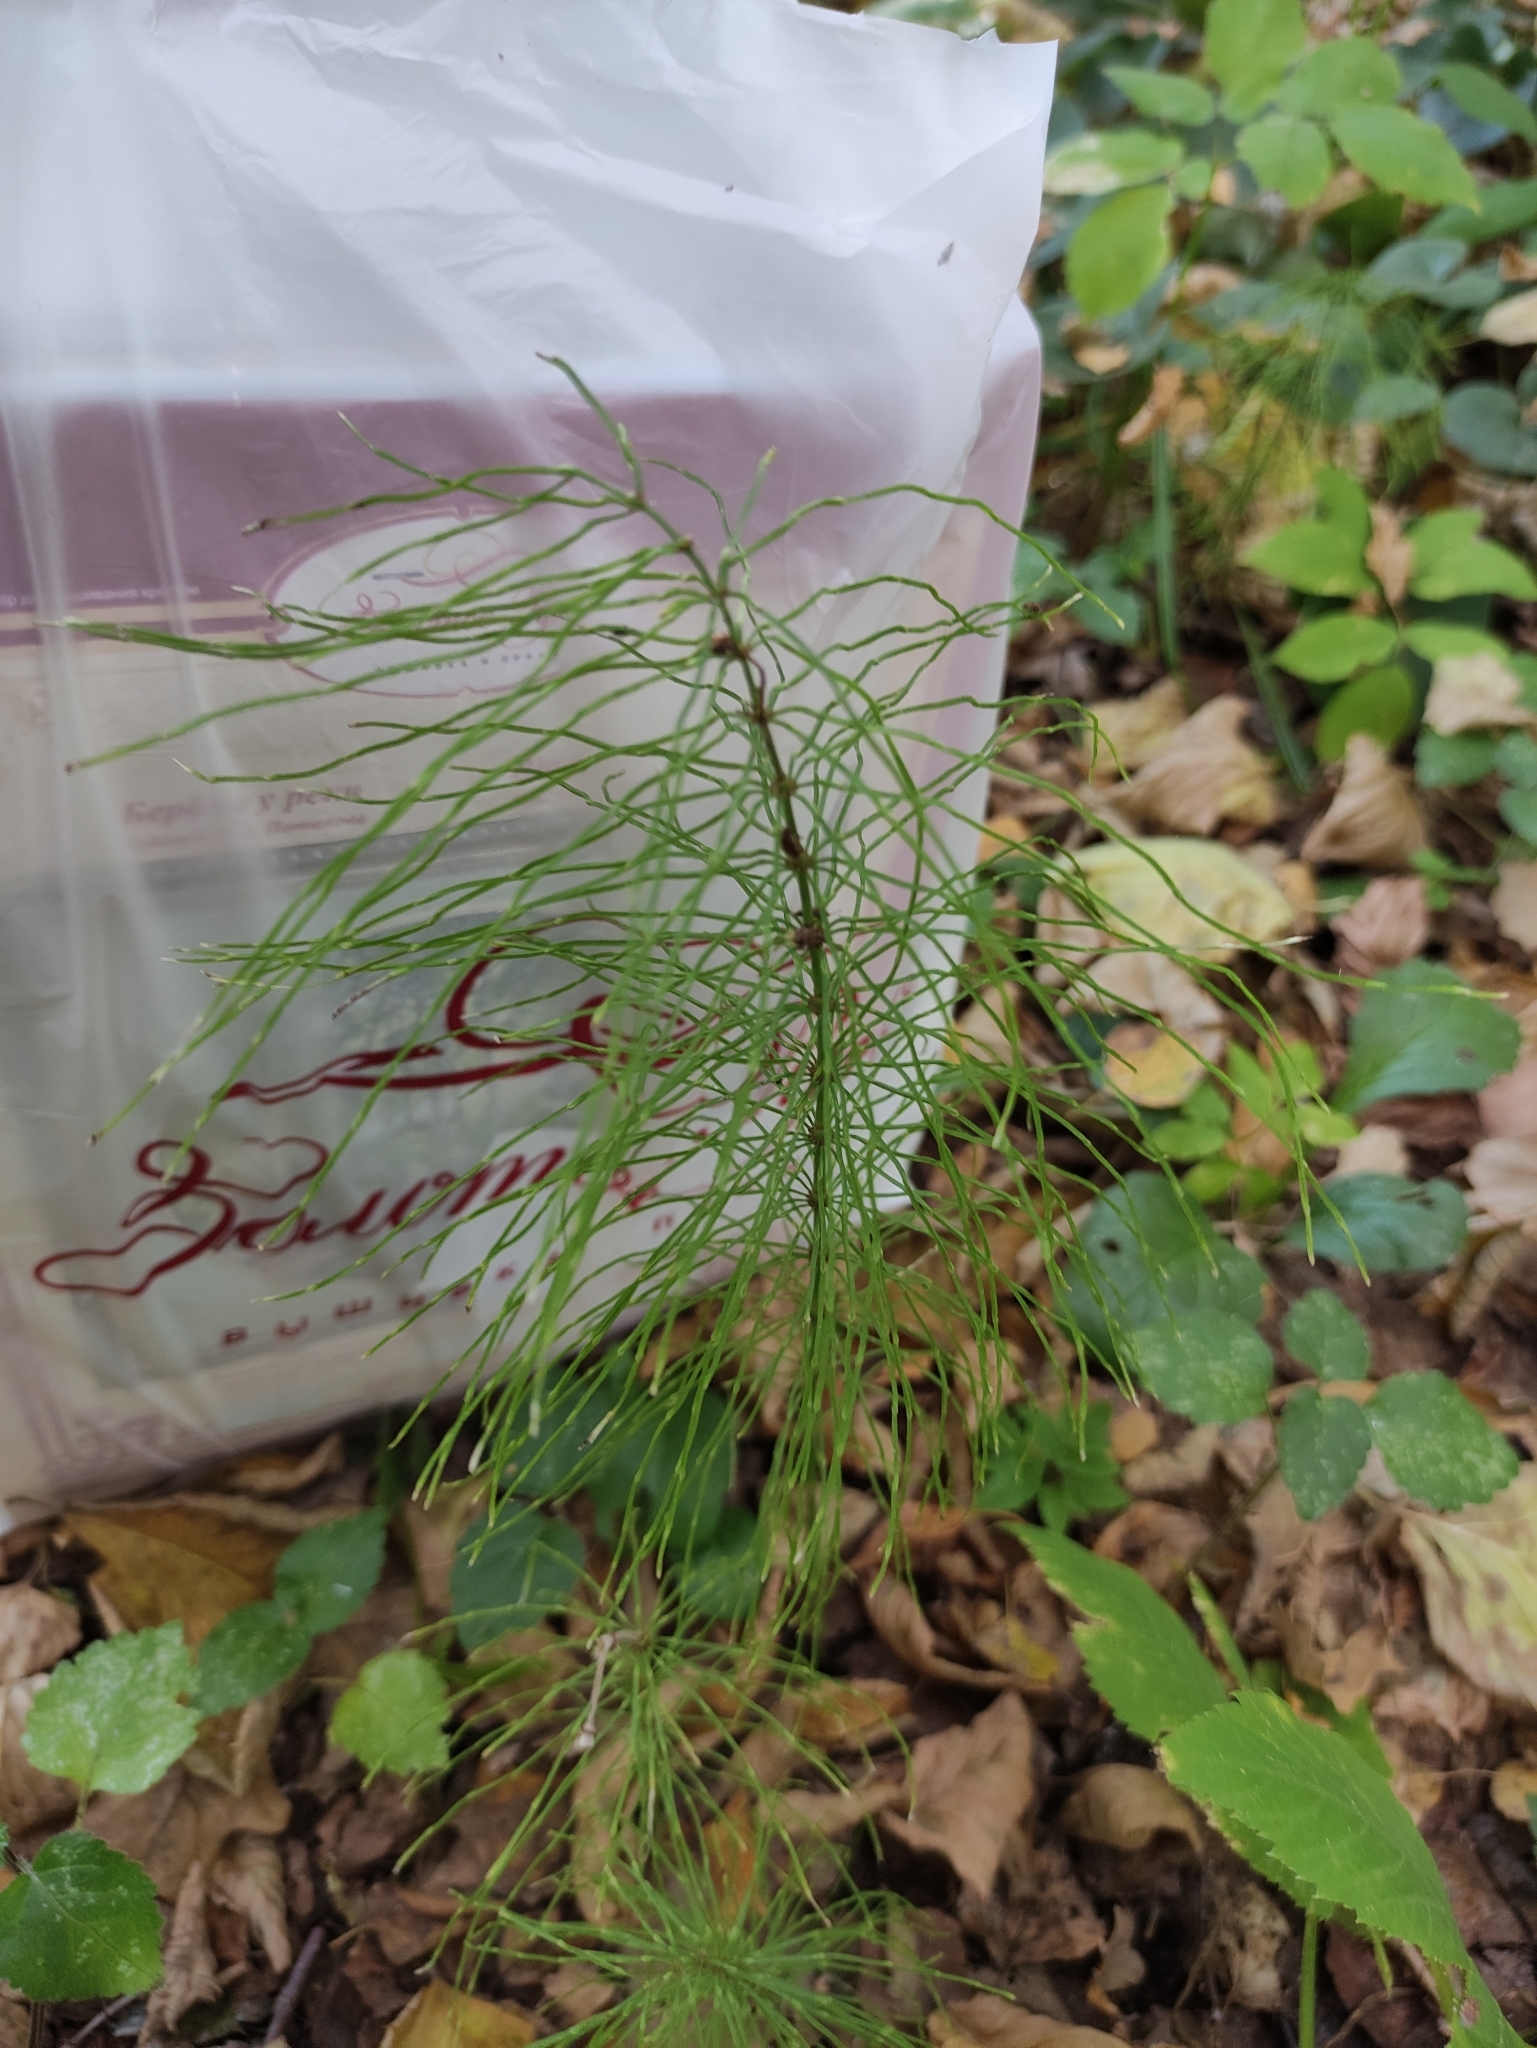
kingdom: Plantae
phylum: Tracheophyta
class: Polypodiopsida
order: Equisetales
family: Equisetaceae
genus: Equisetum
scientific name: Equisetum pratense
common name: Meadow horsetail
